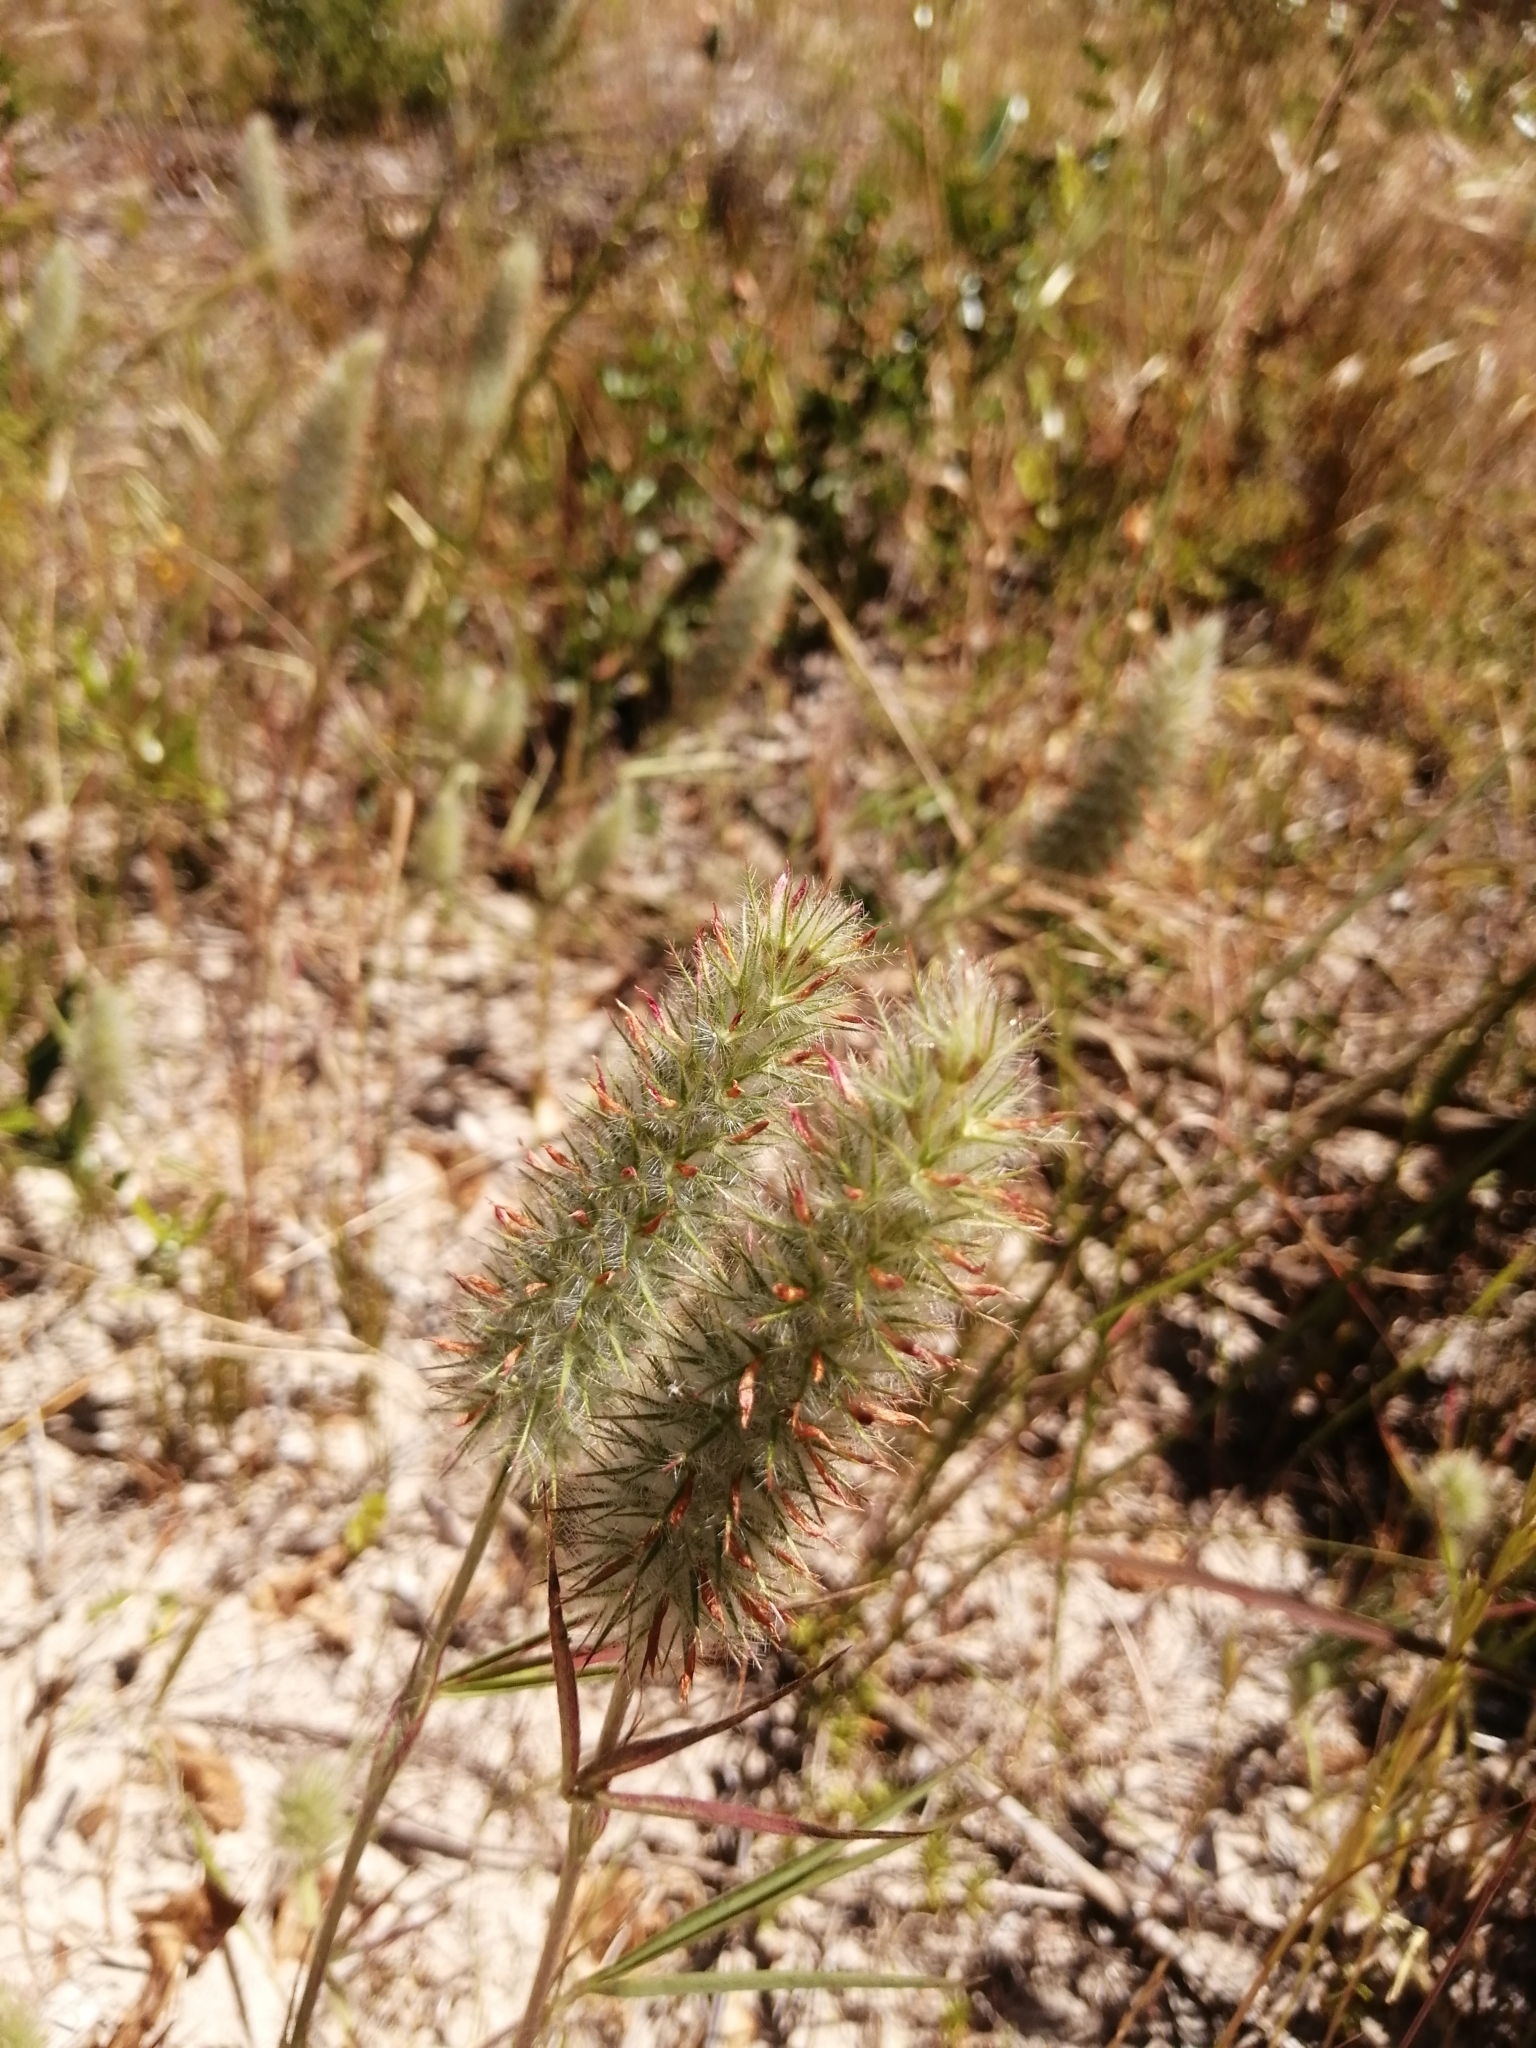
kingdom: Plantae
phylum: Tracheophyta
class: Magnoliopsida
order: Fabales
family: Fabaceae
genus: Trifolium
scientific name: Trifolium angustifolium
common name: Narrow clover
